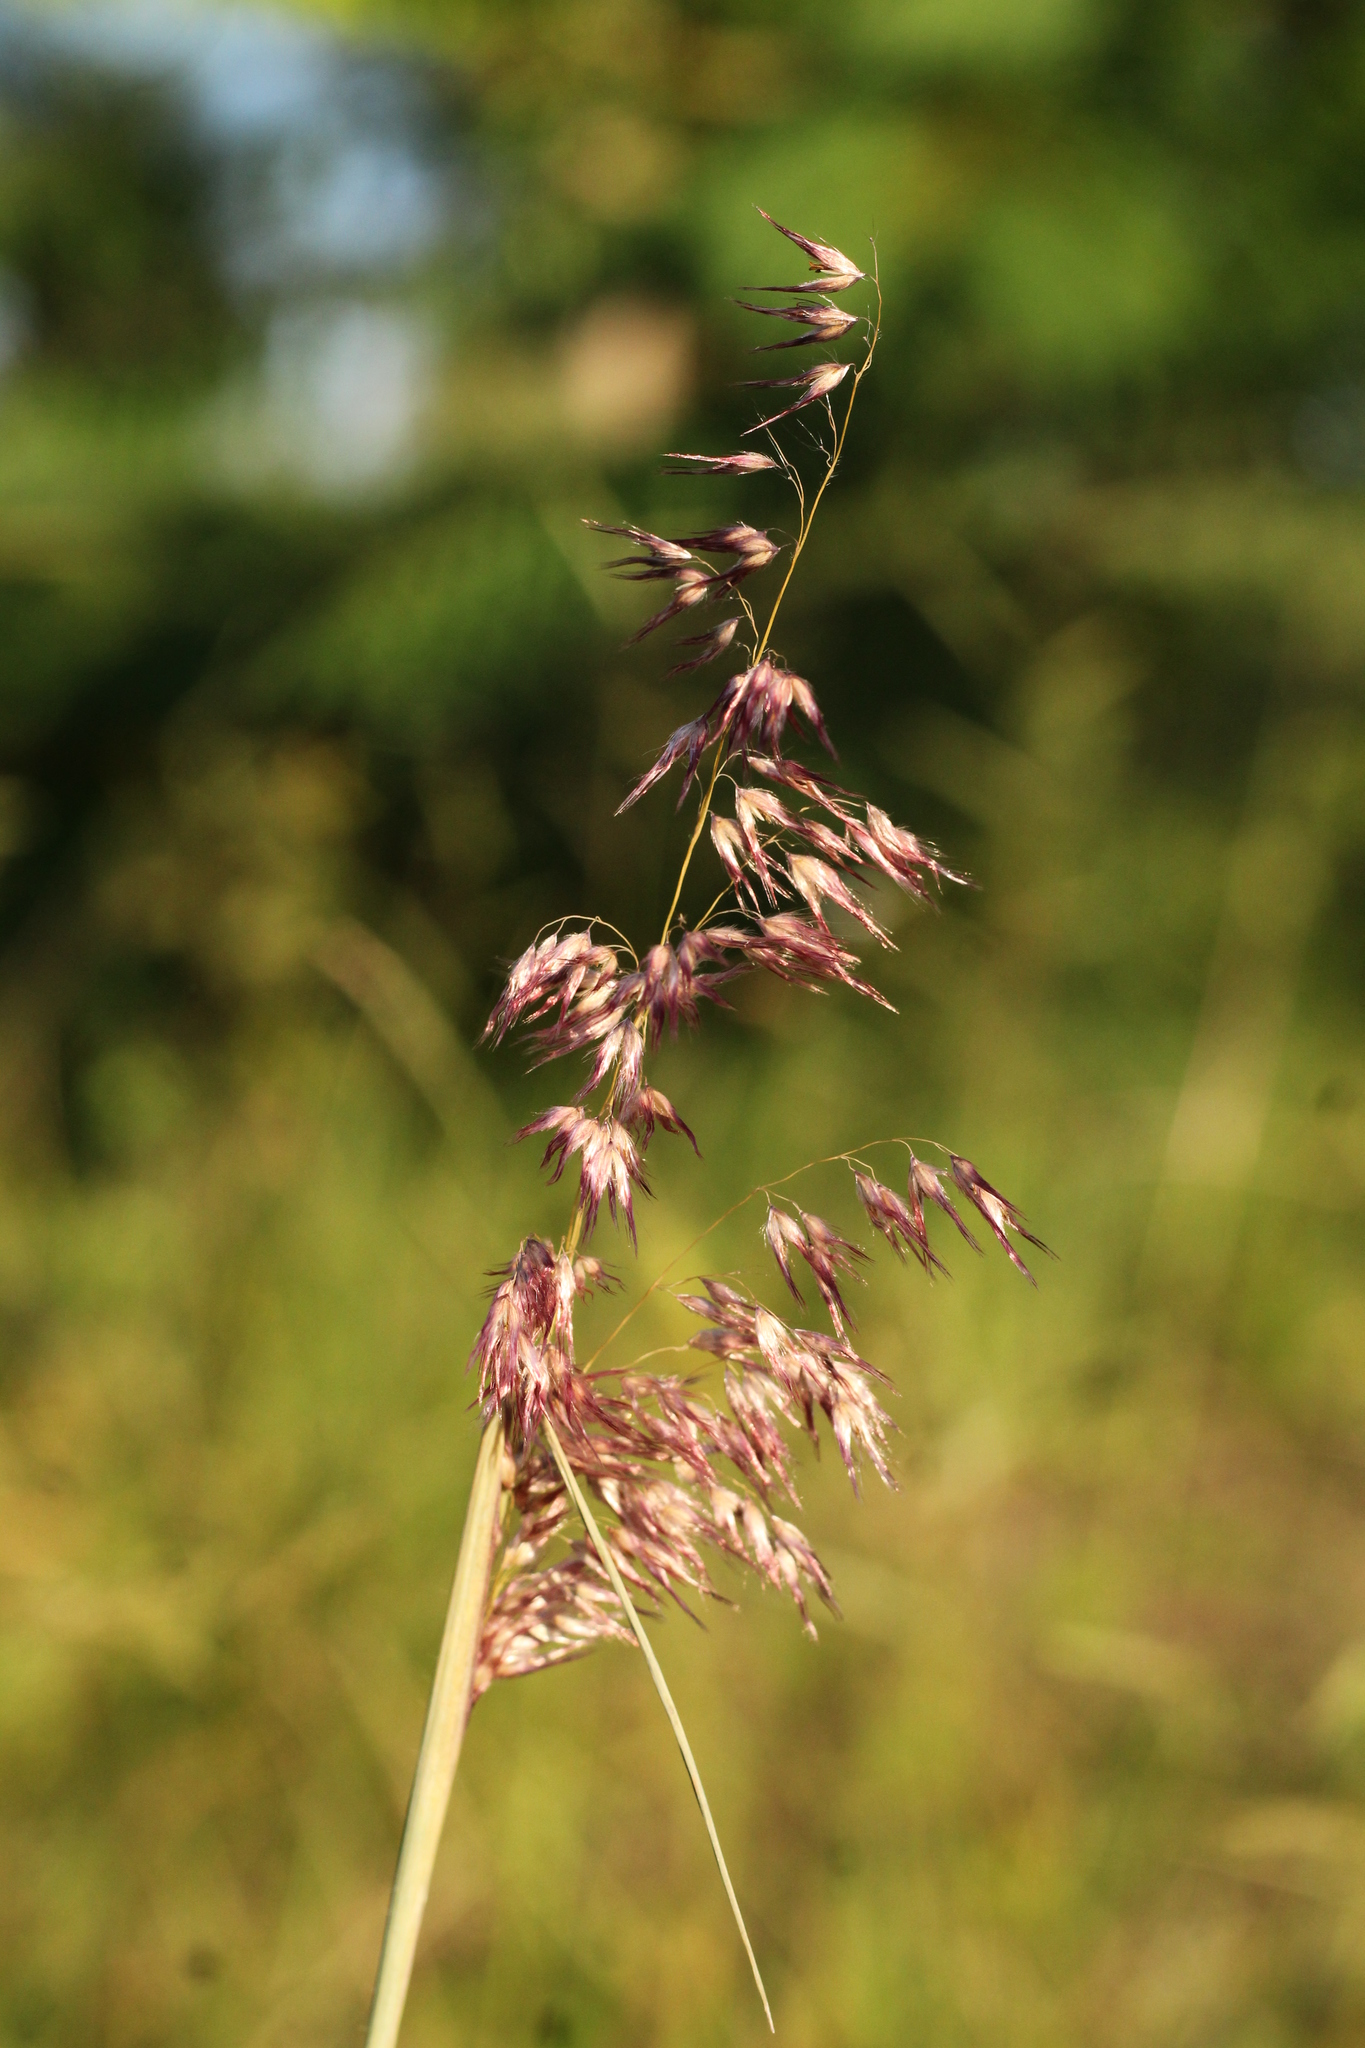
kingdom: Plantae
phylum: Tracheophyta
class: Liliopsida
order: Poales
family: Poaceae
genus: Melinis
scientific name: Melinis repens
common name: Rose natal grass
